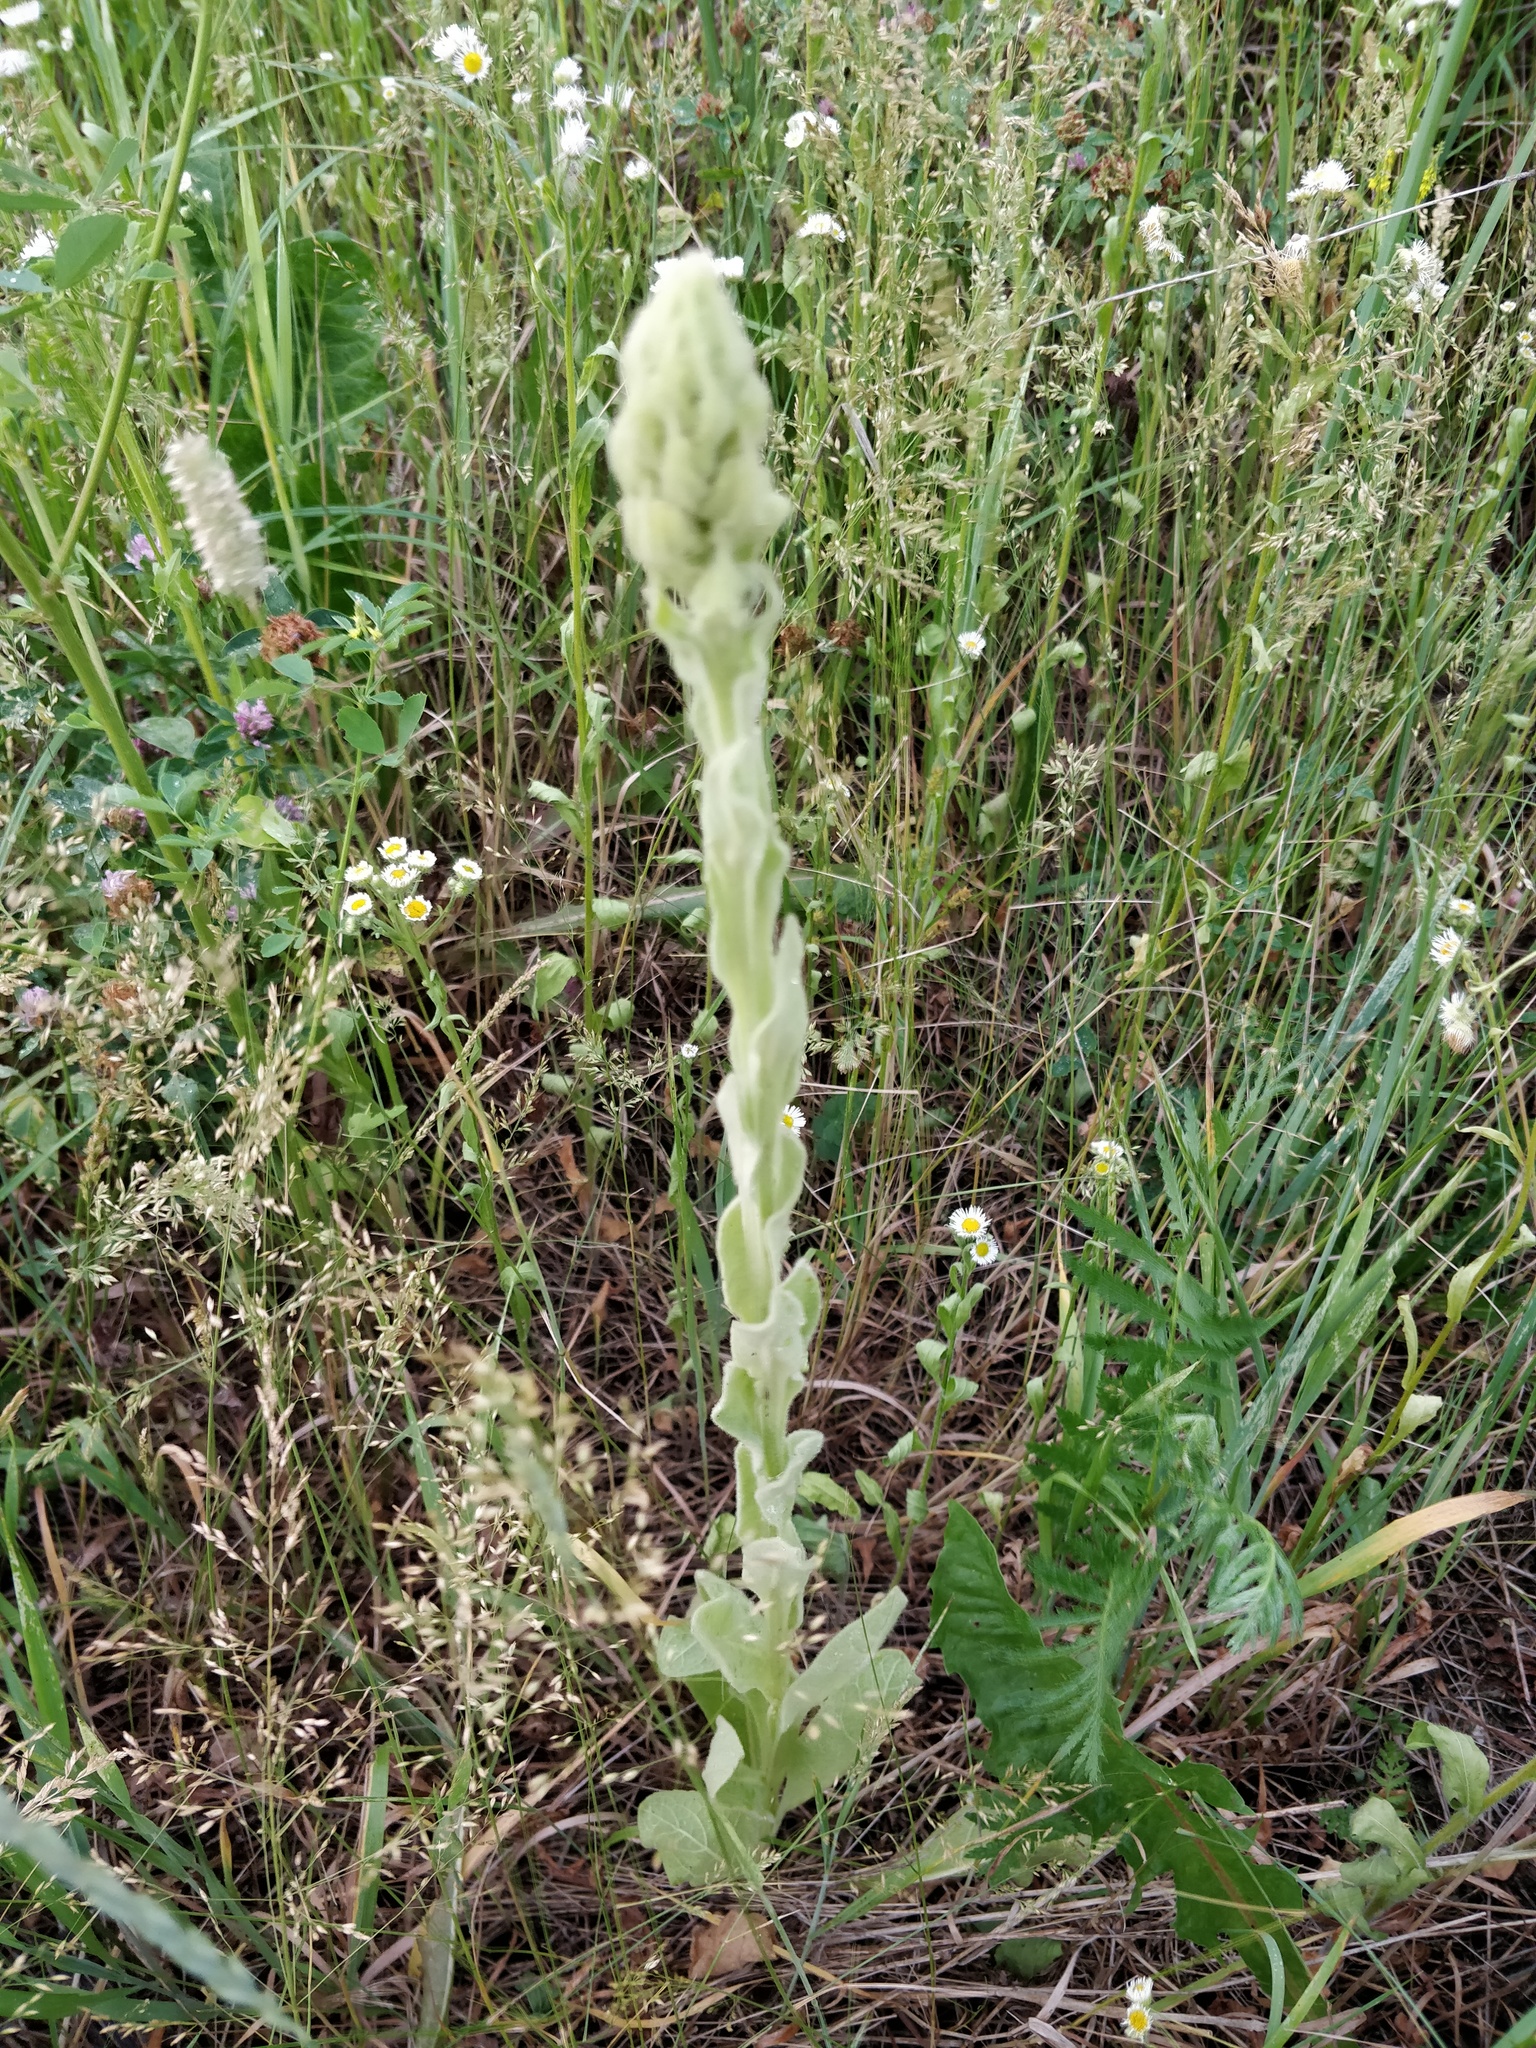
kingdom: Plantae
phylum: Tracheophyta
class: Magnoliopsida
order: Lamiales
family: Scrophulariaceae
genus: Verbascum
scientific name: Verbascum thapsus
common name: Common mullein
